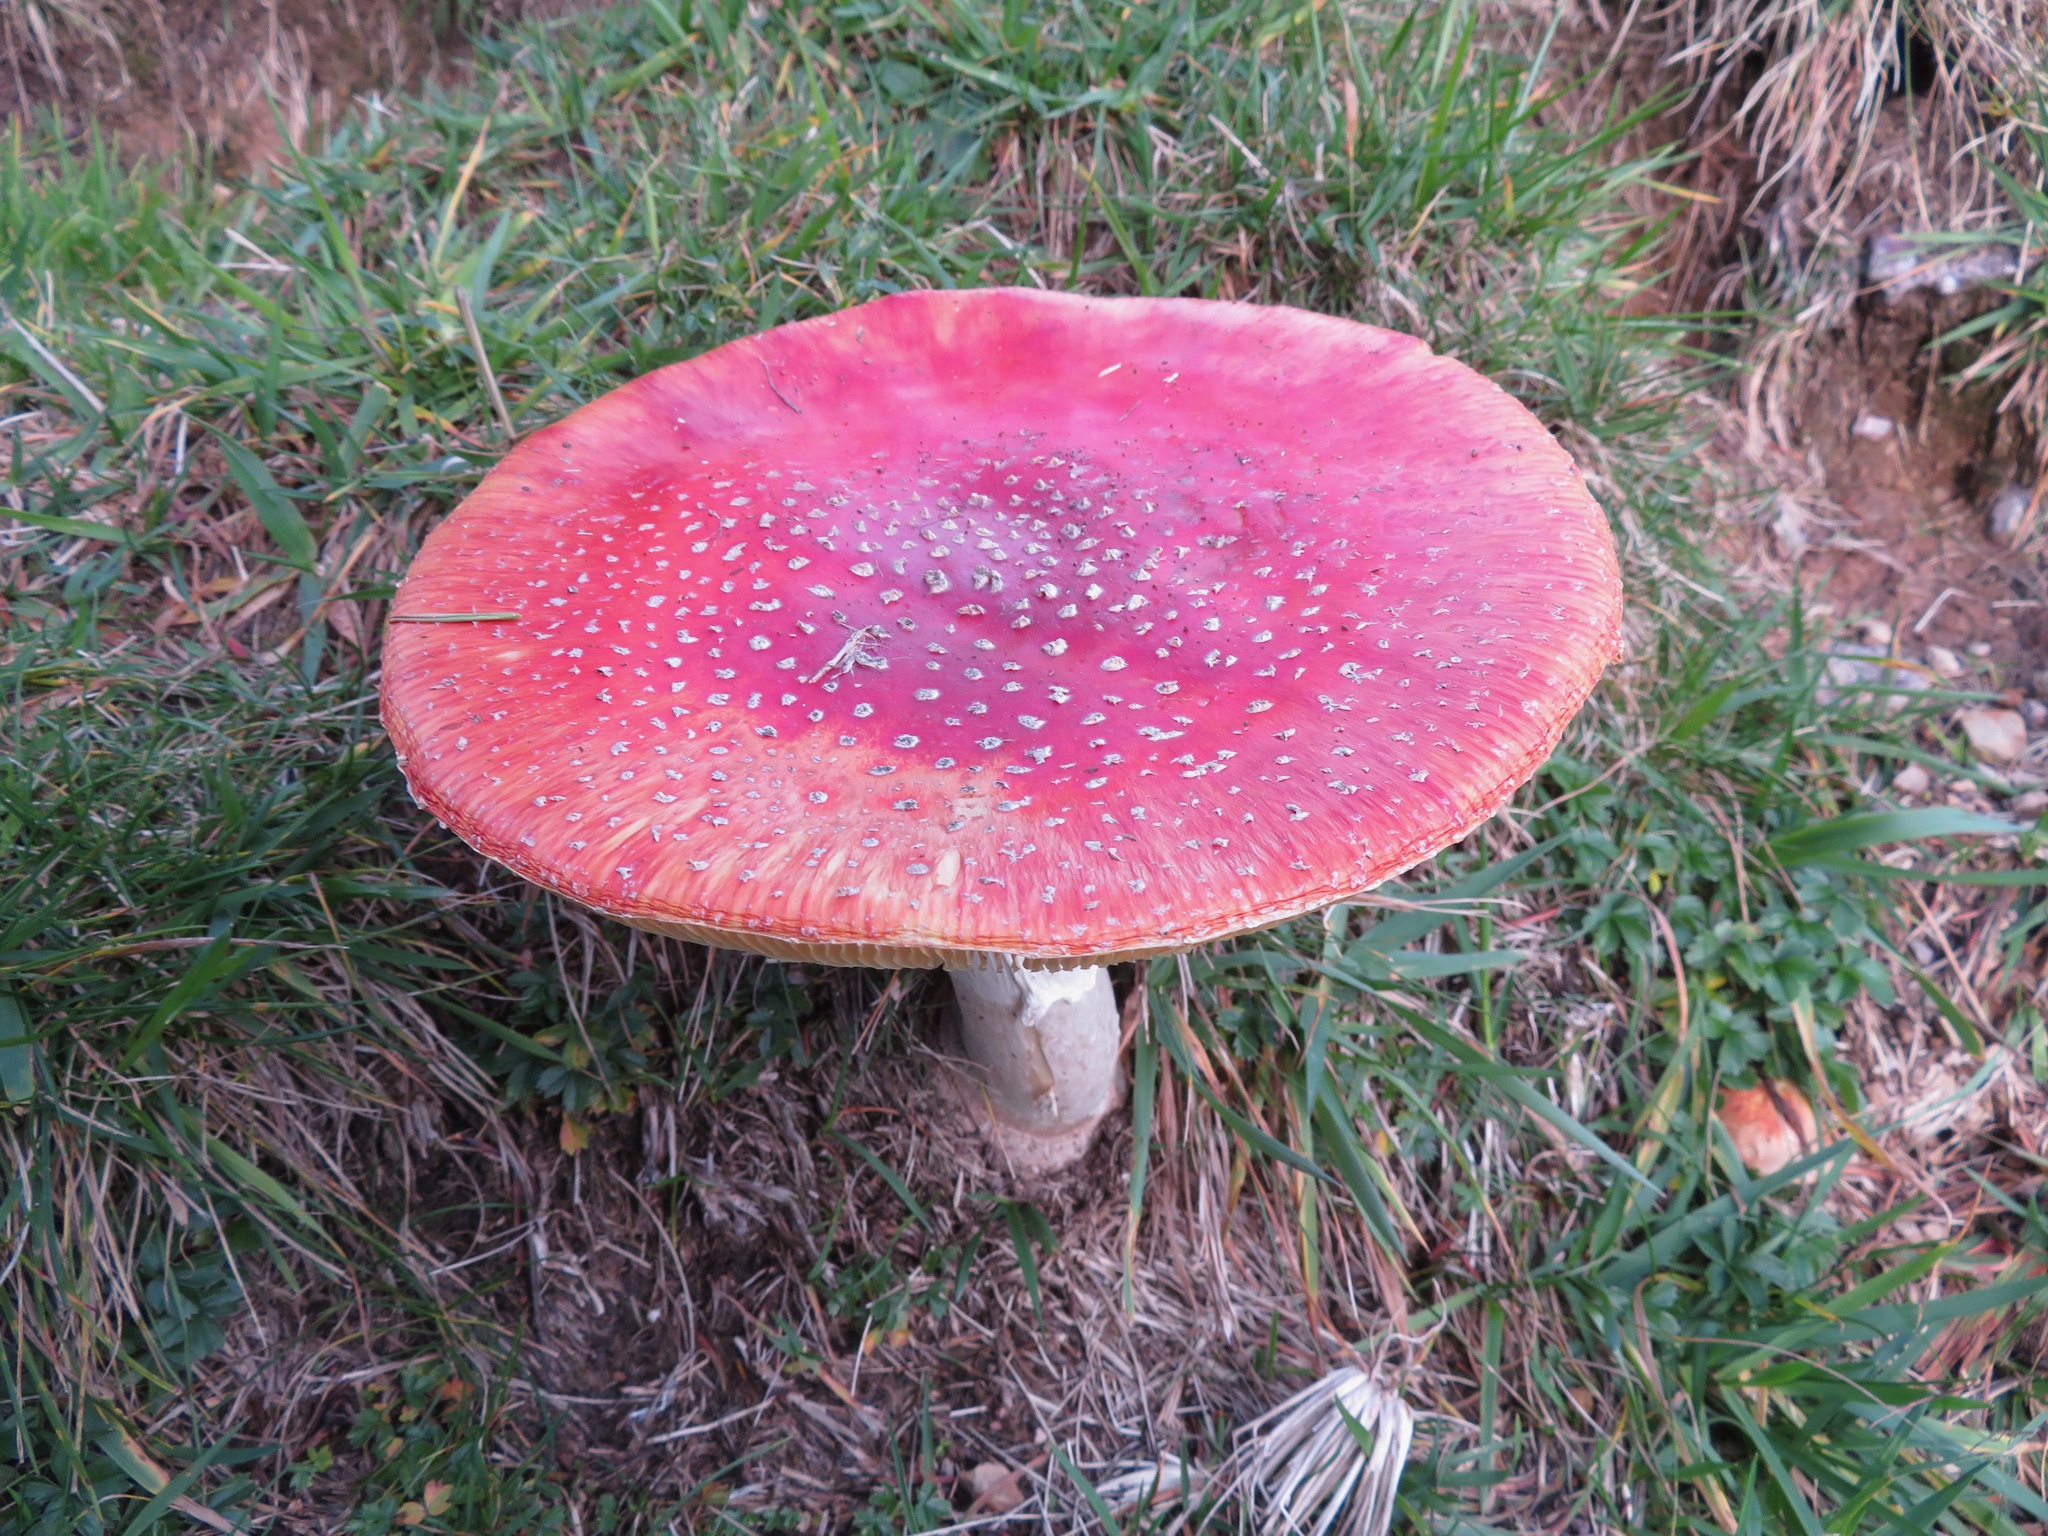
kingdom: Fungi
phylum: Basidiomycota
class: Agaricomycetes
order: Agaricales
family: Amanitaceae
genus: Amanita
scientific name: Amanita muscaria
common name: Fly agaric
